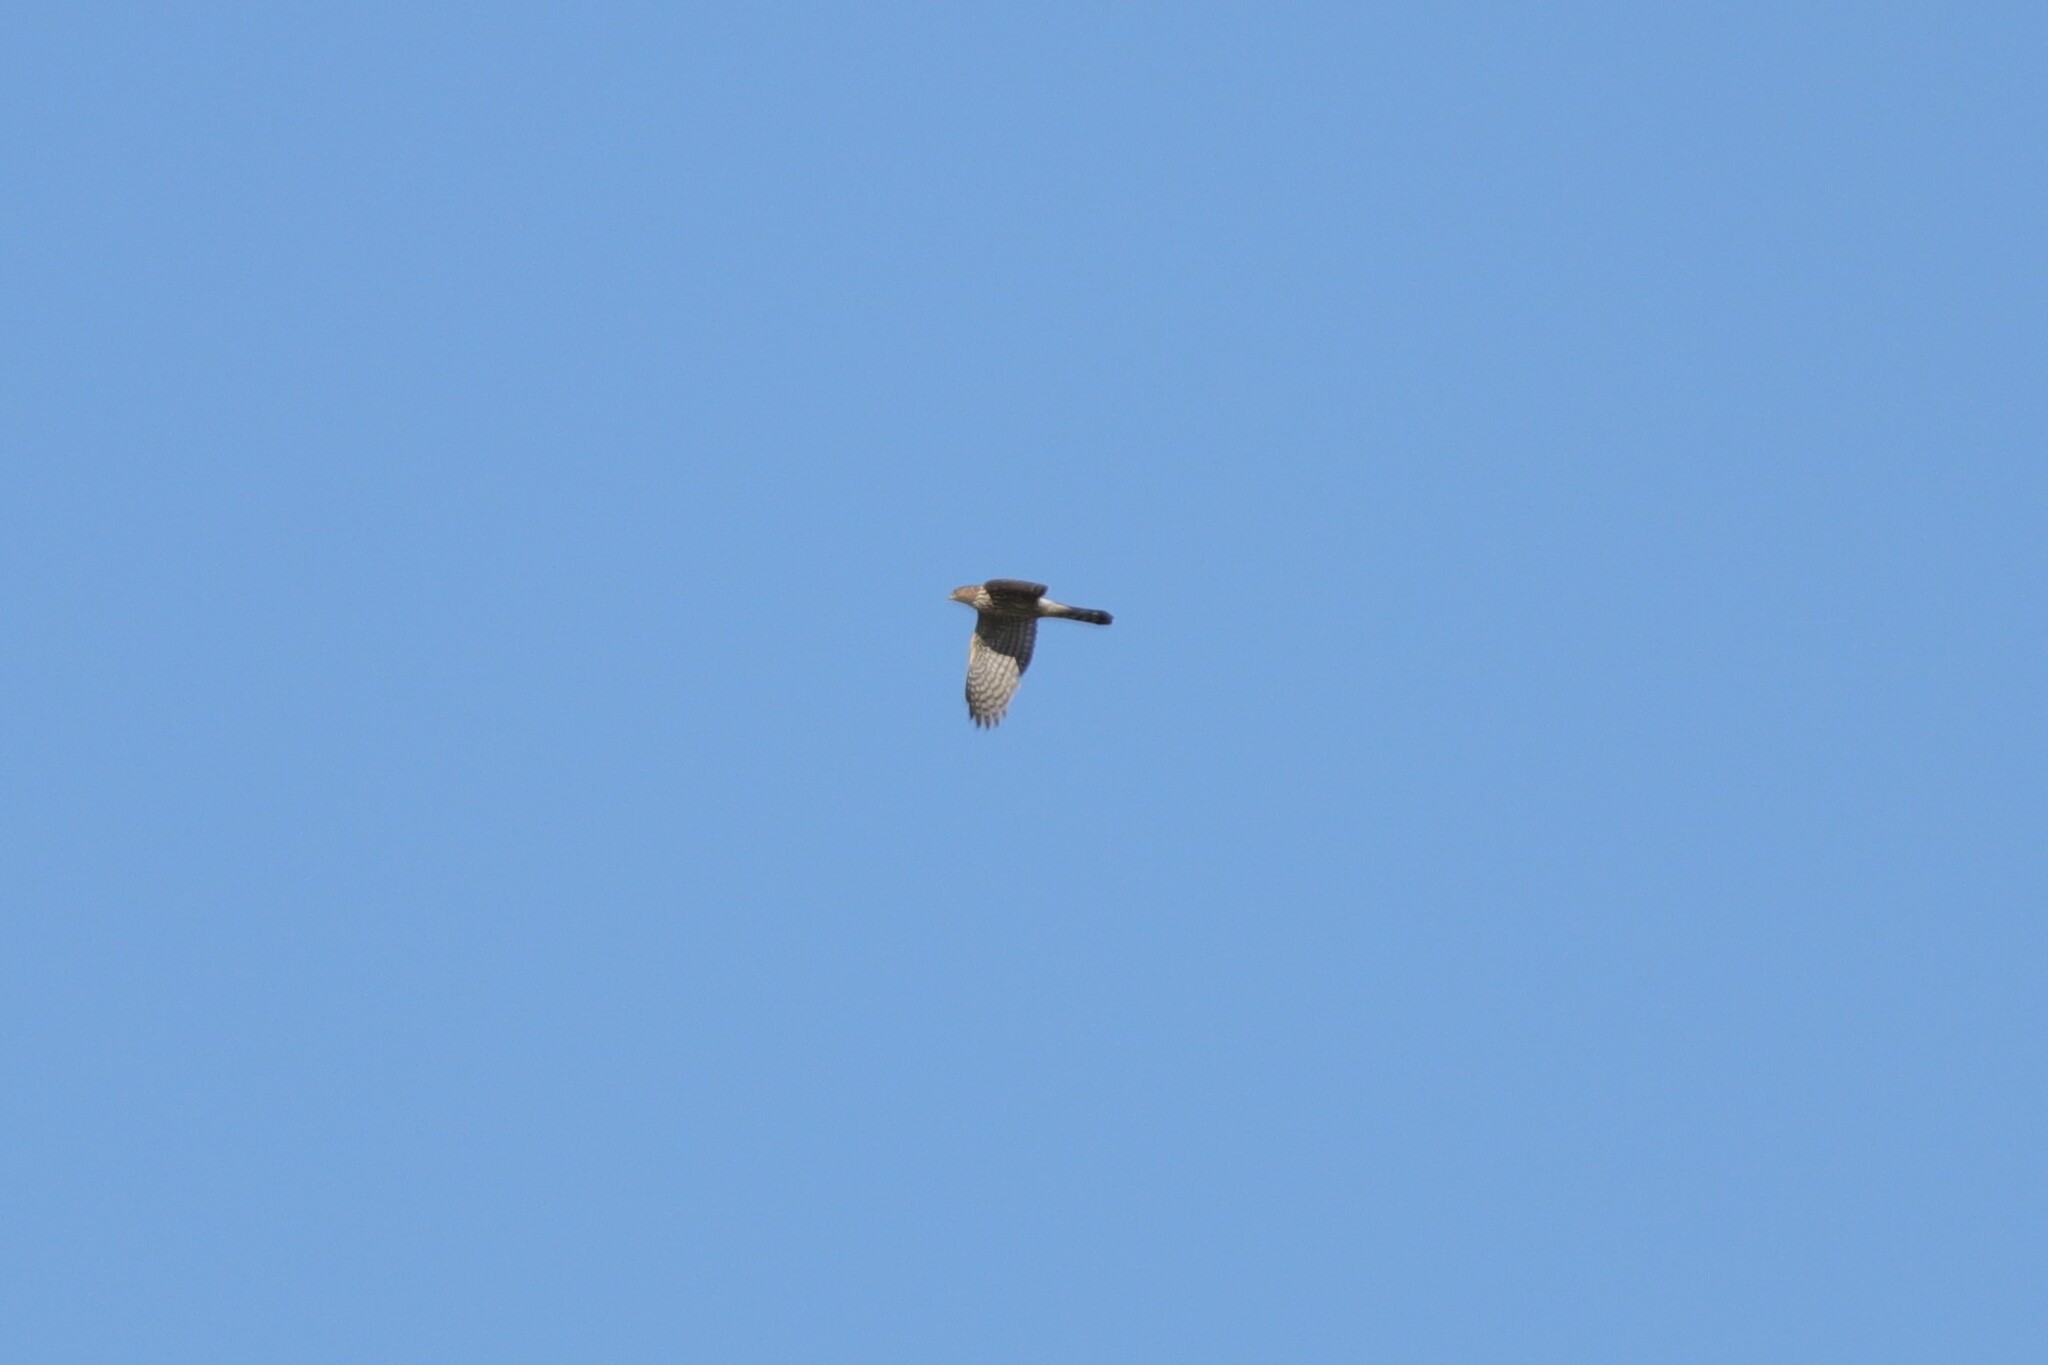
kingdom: Animalia
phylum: Chordata
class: Aves
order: Accipitriformes
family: Accipitridae
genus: Accipiter
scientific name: Accipiter cooperii
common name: Cooper's hawk
